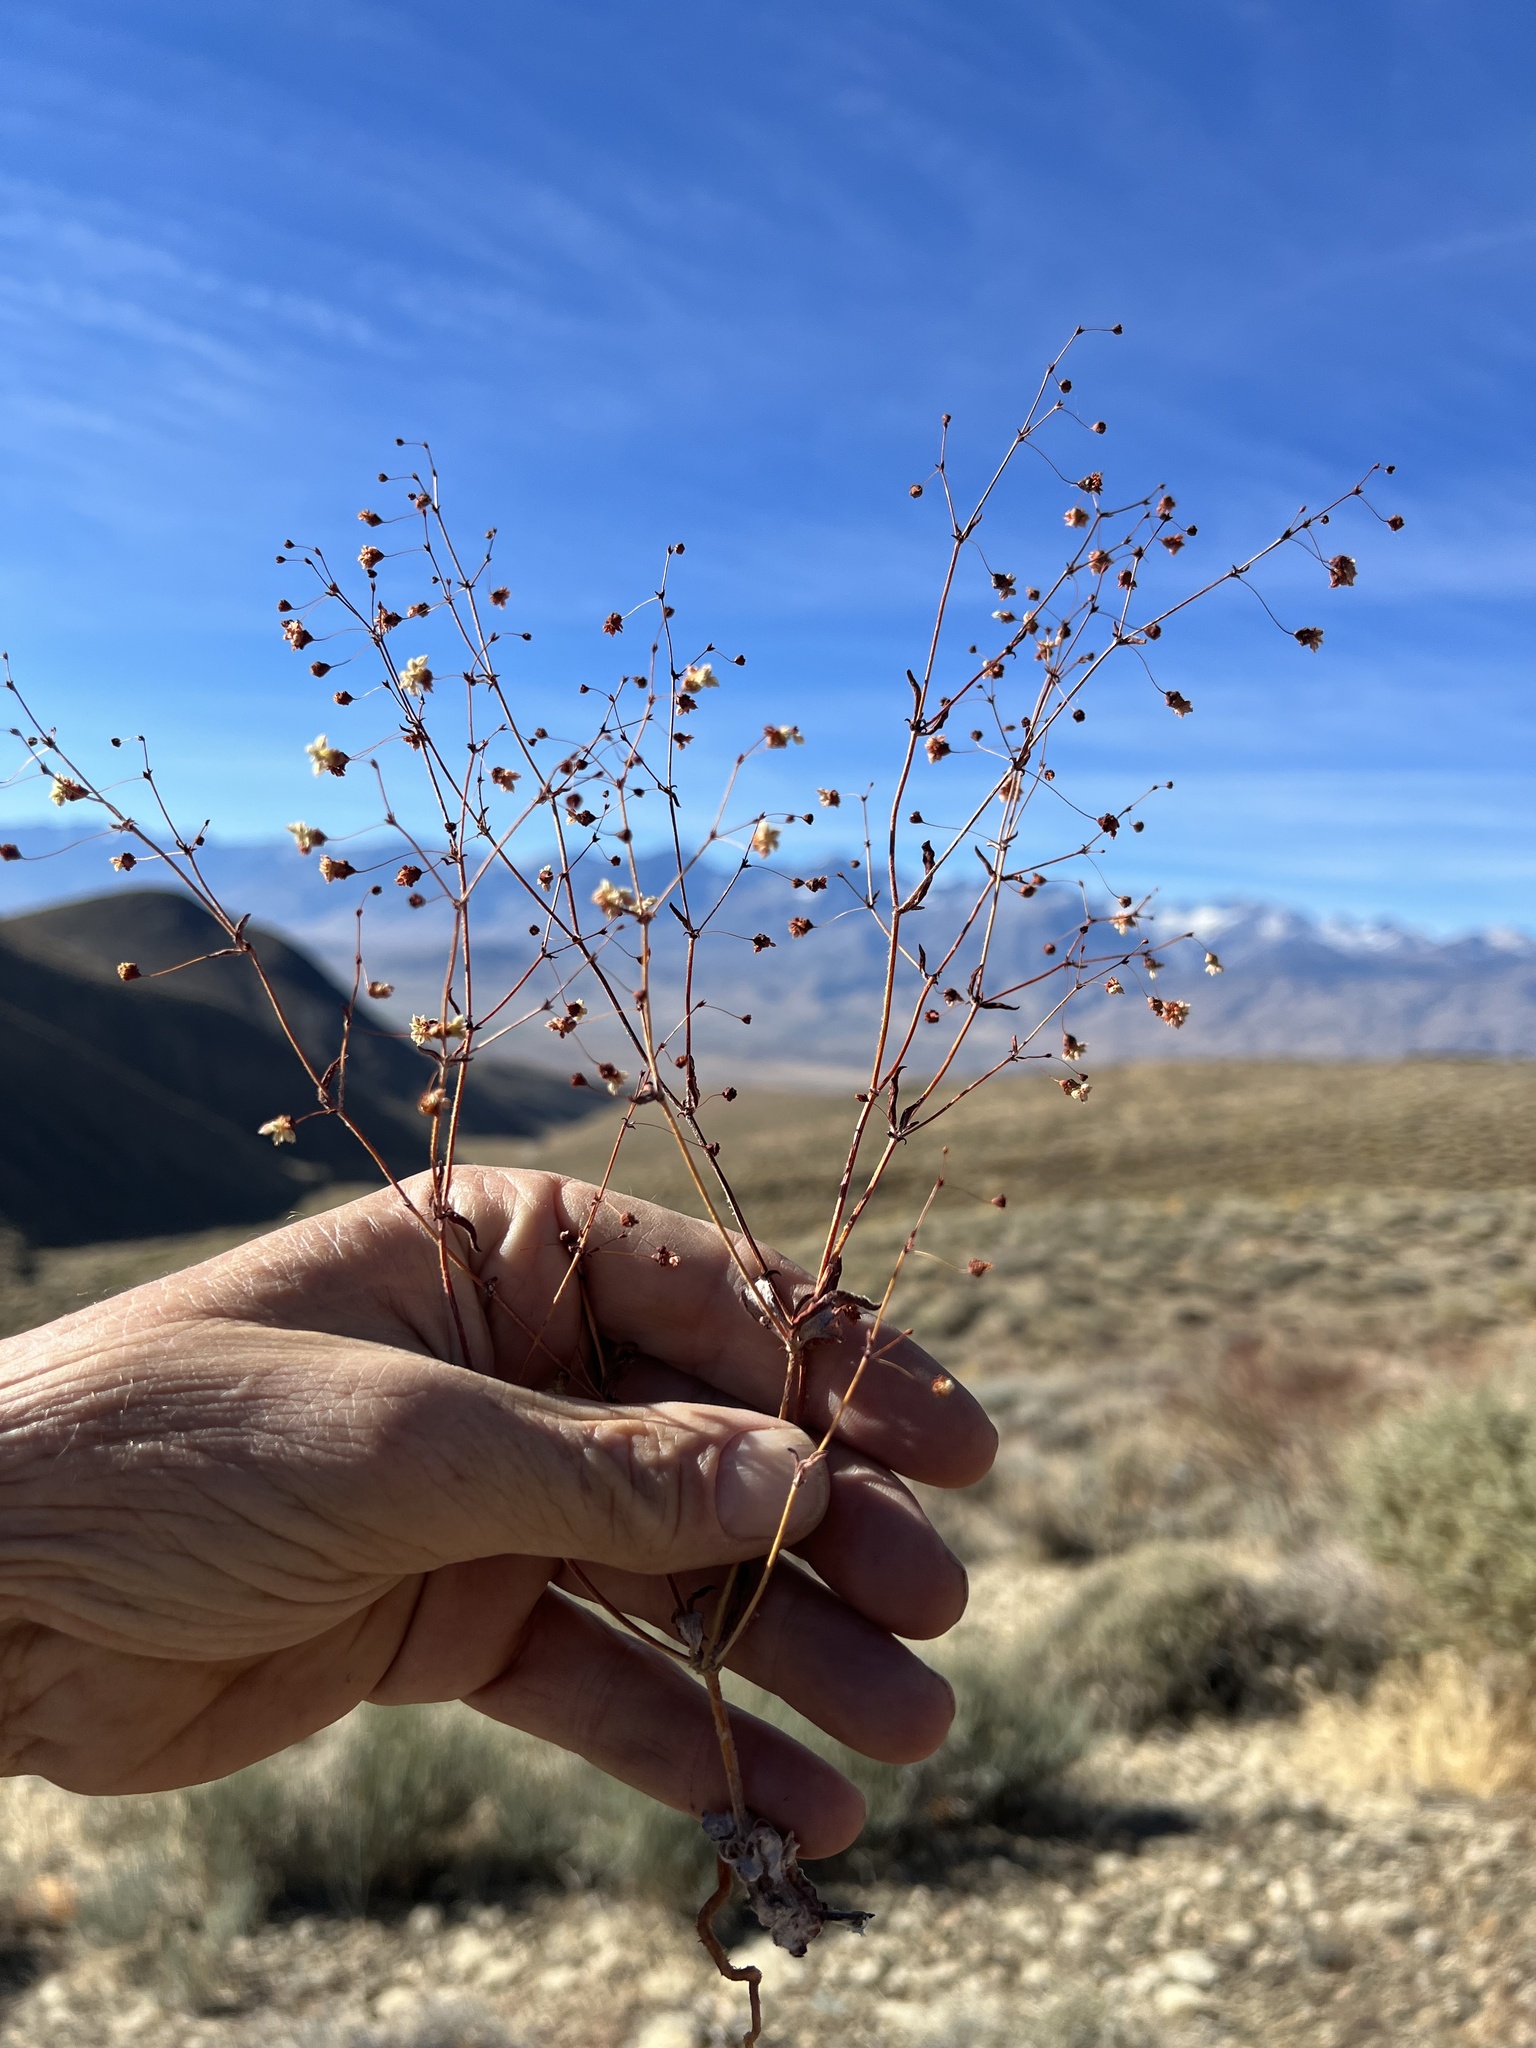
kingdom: Plantae
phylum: Tracheophyta
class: Magnoliopsida
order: Caryophyllales
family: Polygonaceae
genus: Eriogonum
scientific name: Eriogonum maculatum
